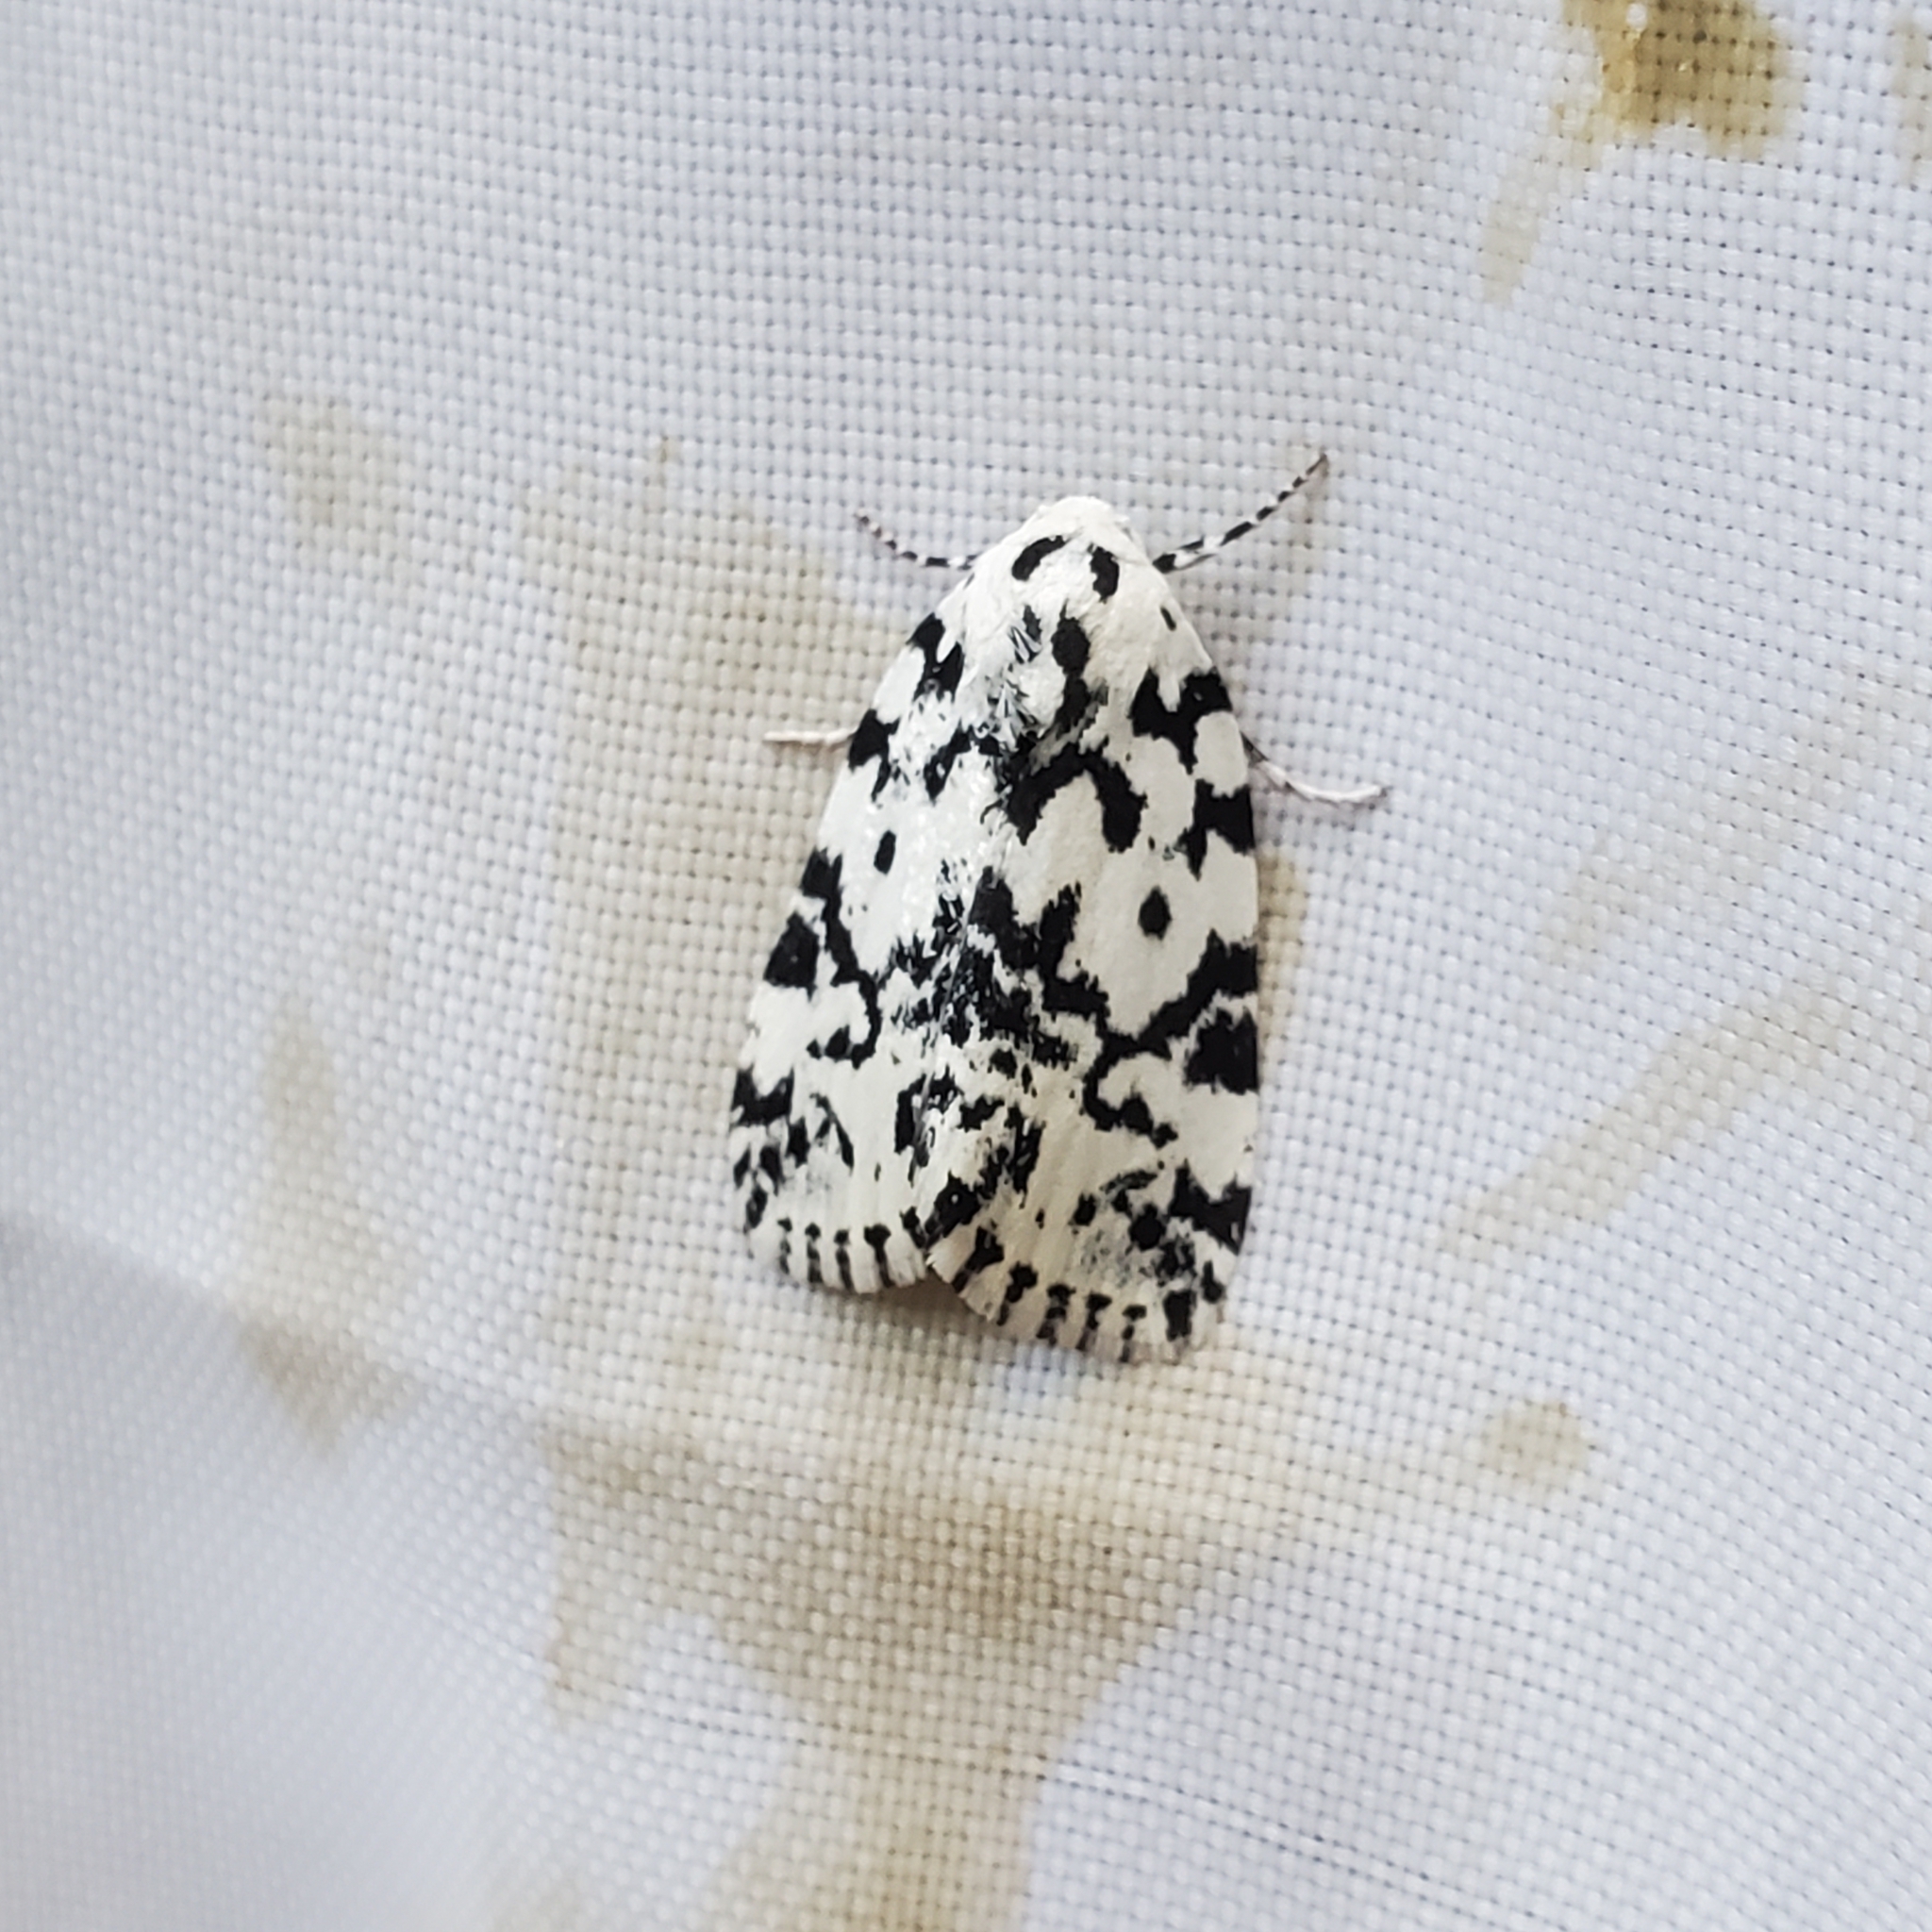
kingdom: Animalia
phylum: Arthropoda
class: Insecta
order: Lepidoptera
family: Noctuidae
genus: Polygrammate
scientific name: Polygrammate hebraeicum
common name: Hebrew moth
